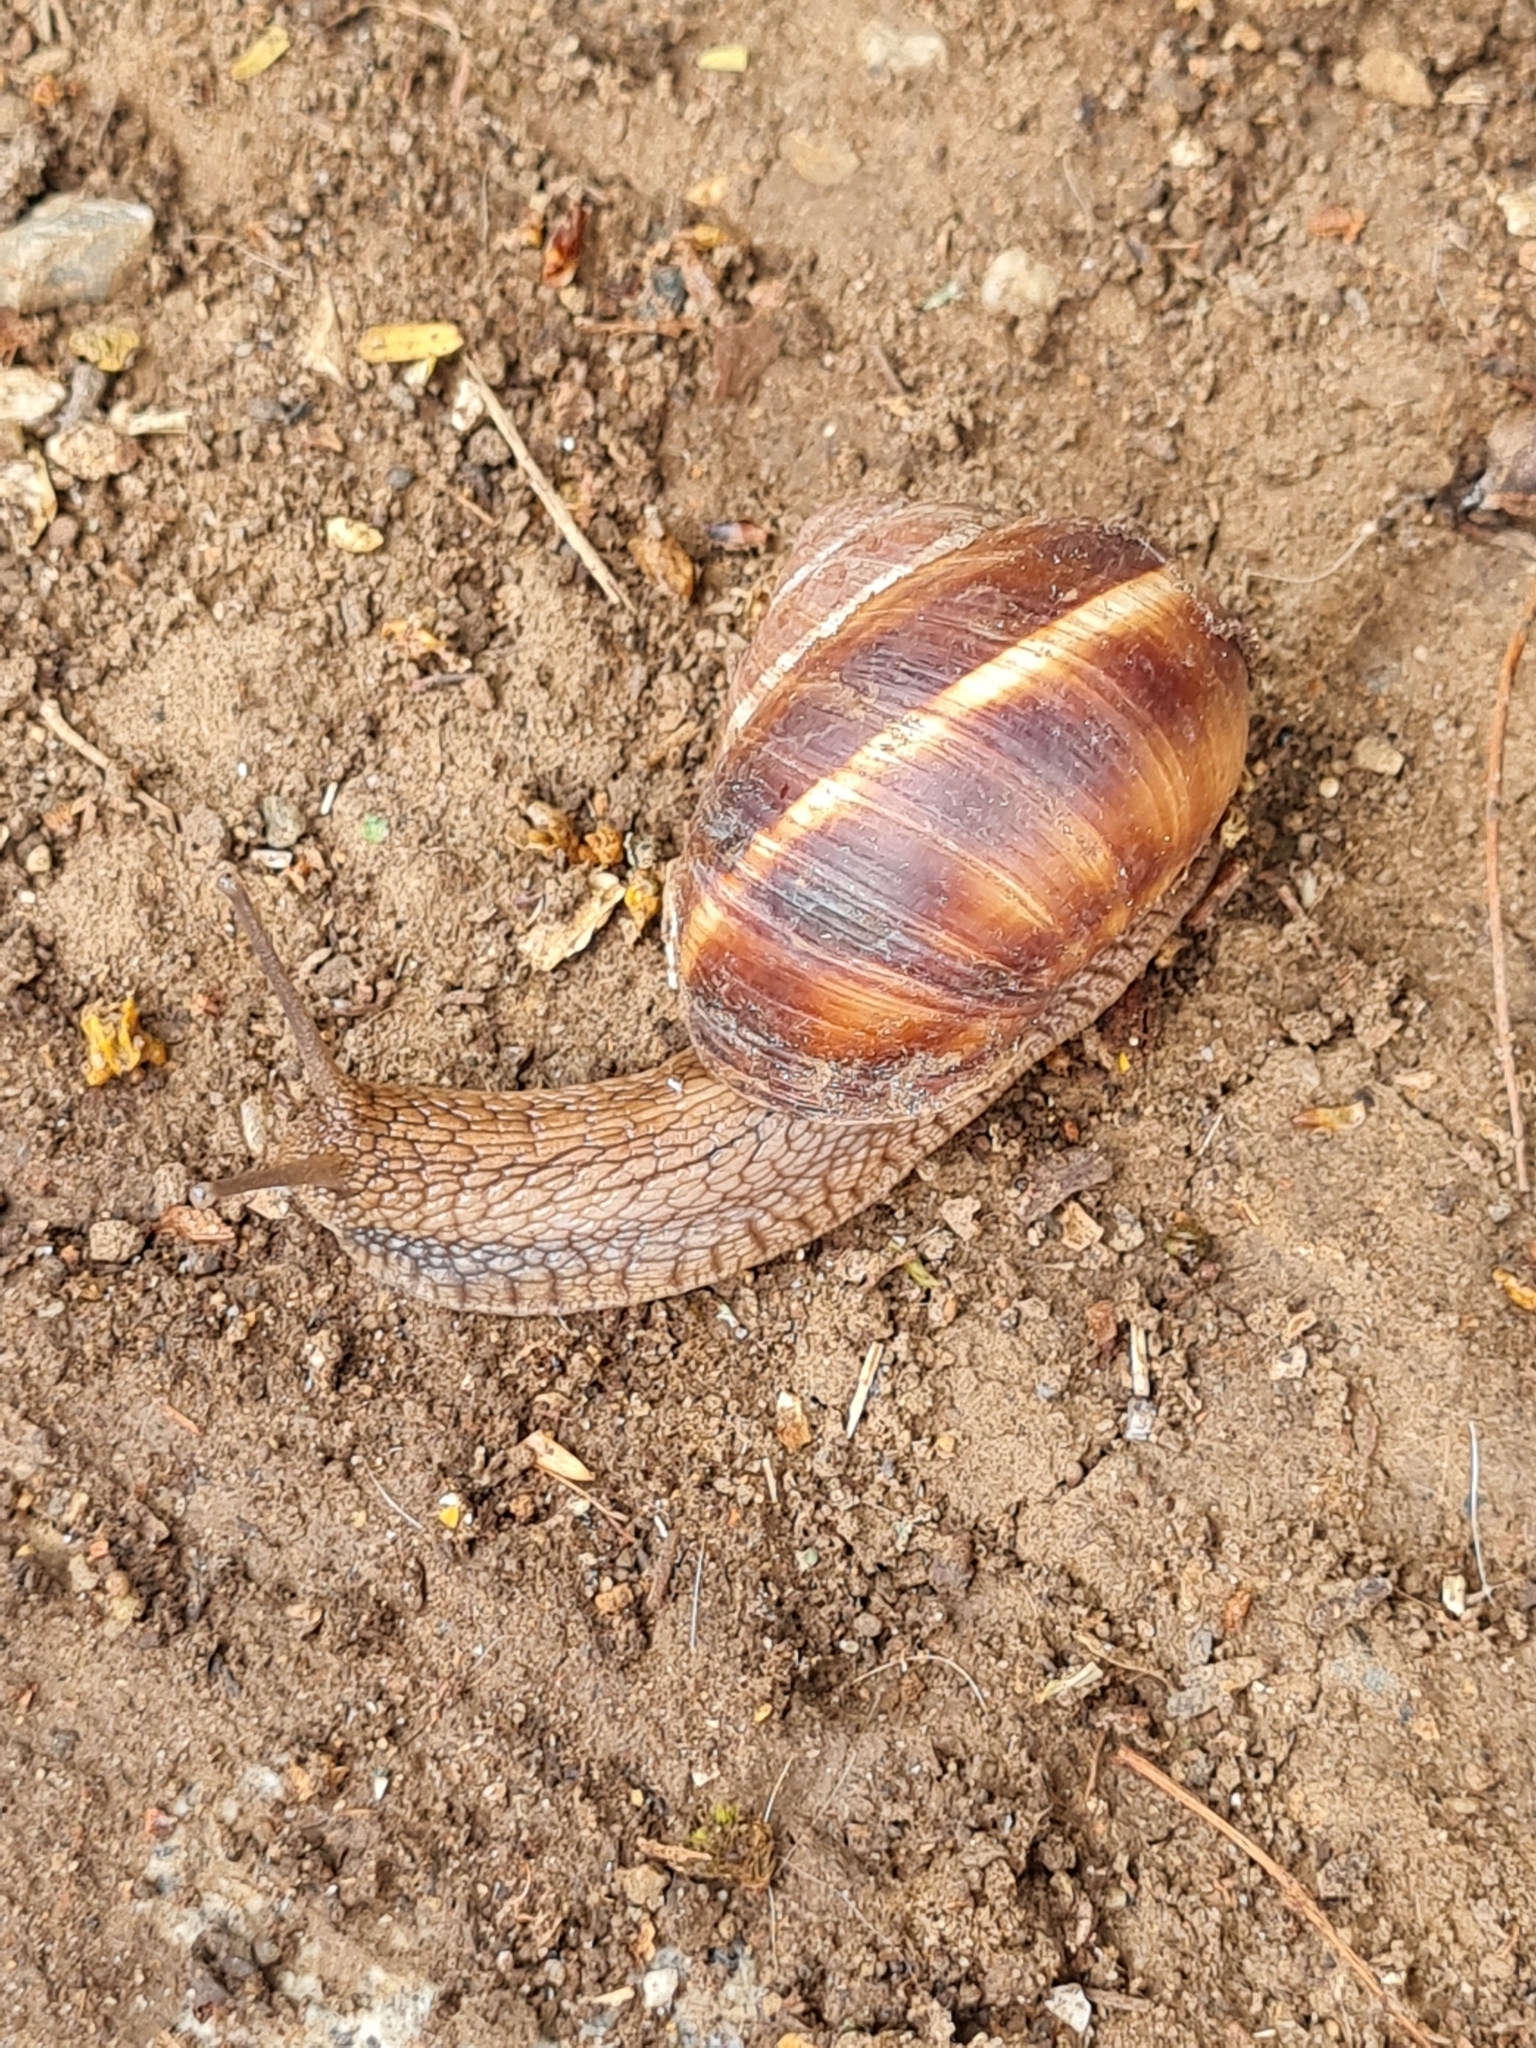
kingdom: Animalia
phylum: Mollusca
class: Gastropoda
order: Stylommatophora
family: Helicidae
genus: Helix
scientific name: Helix lucorum
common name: Turkish snail
